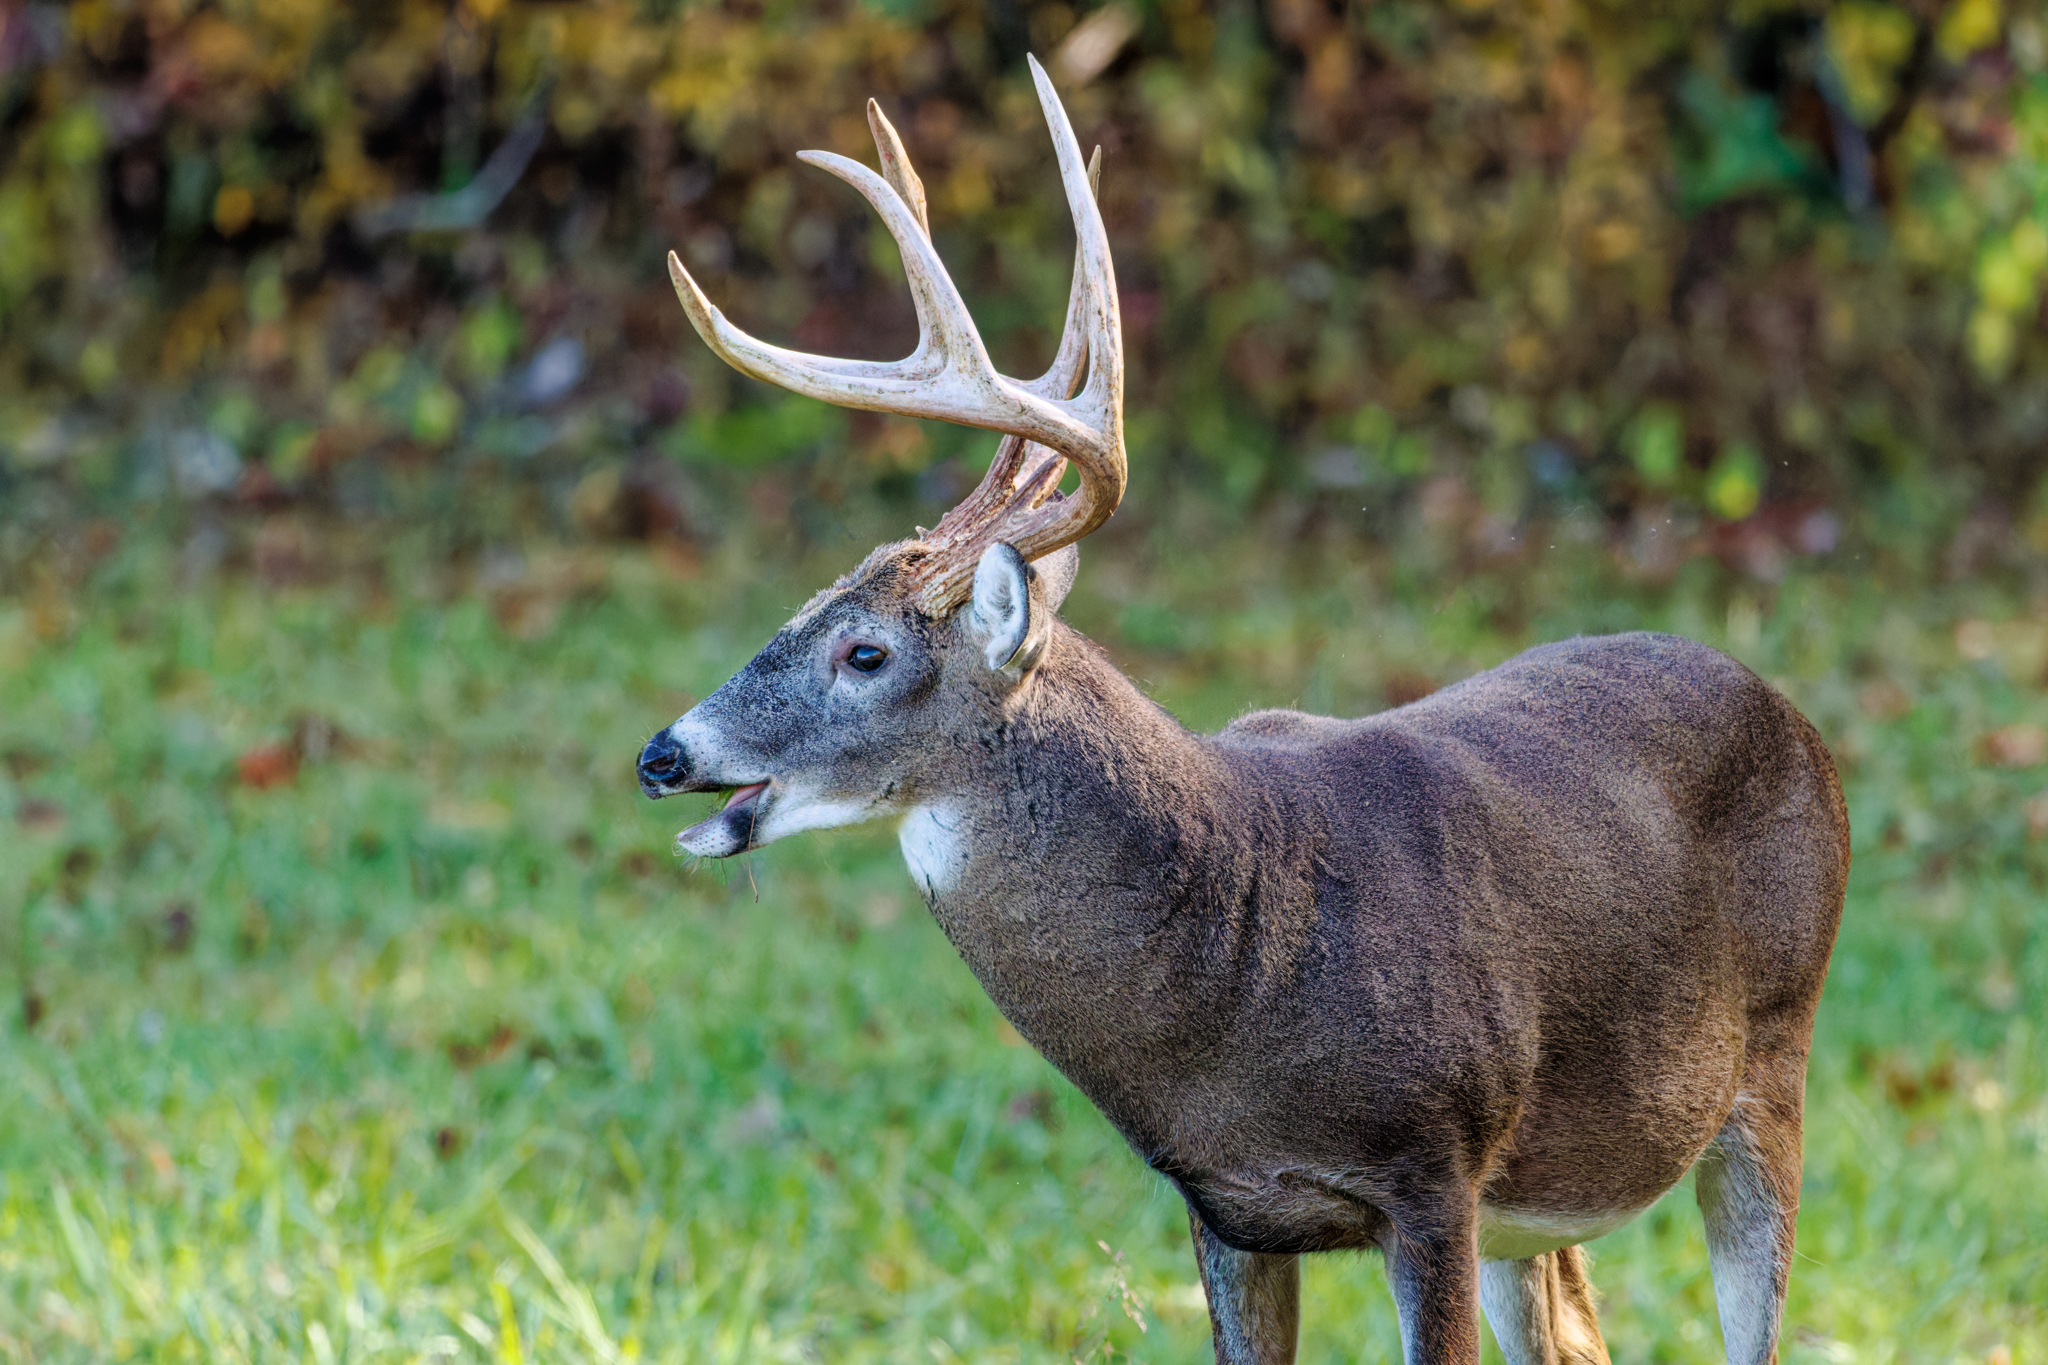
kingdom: Animalia
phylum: Chordata
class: Mammalia
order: Artiodactyla
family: Cervidae
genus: Odocoileus
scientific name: Odocoileus virginianus
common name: White-tailed deer
